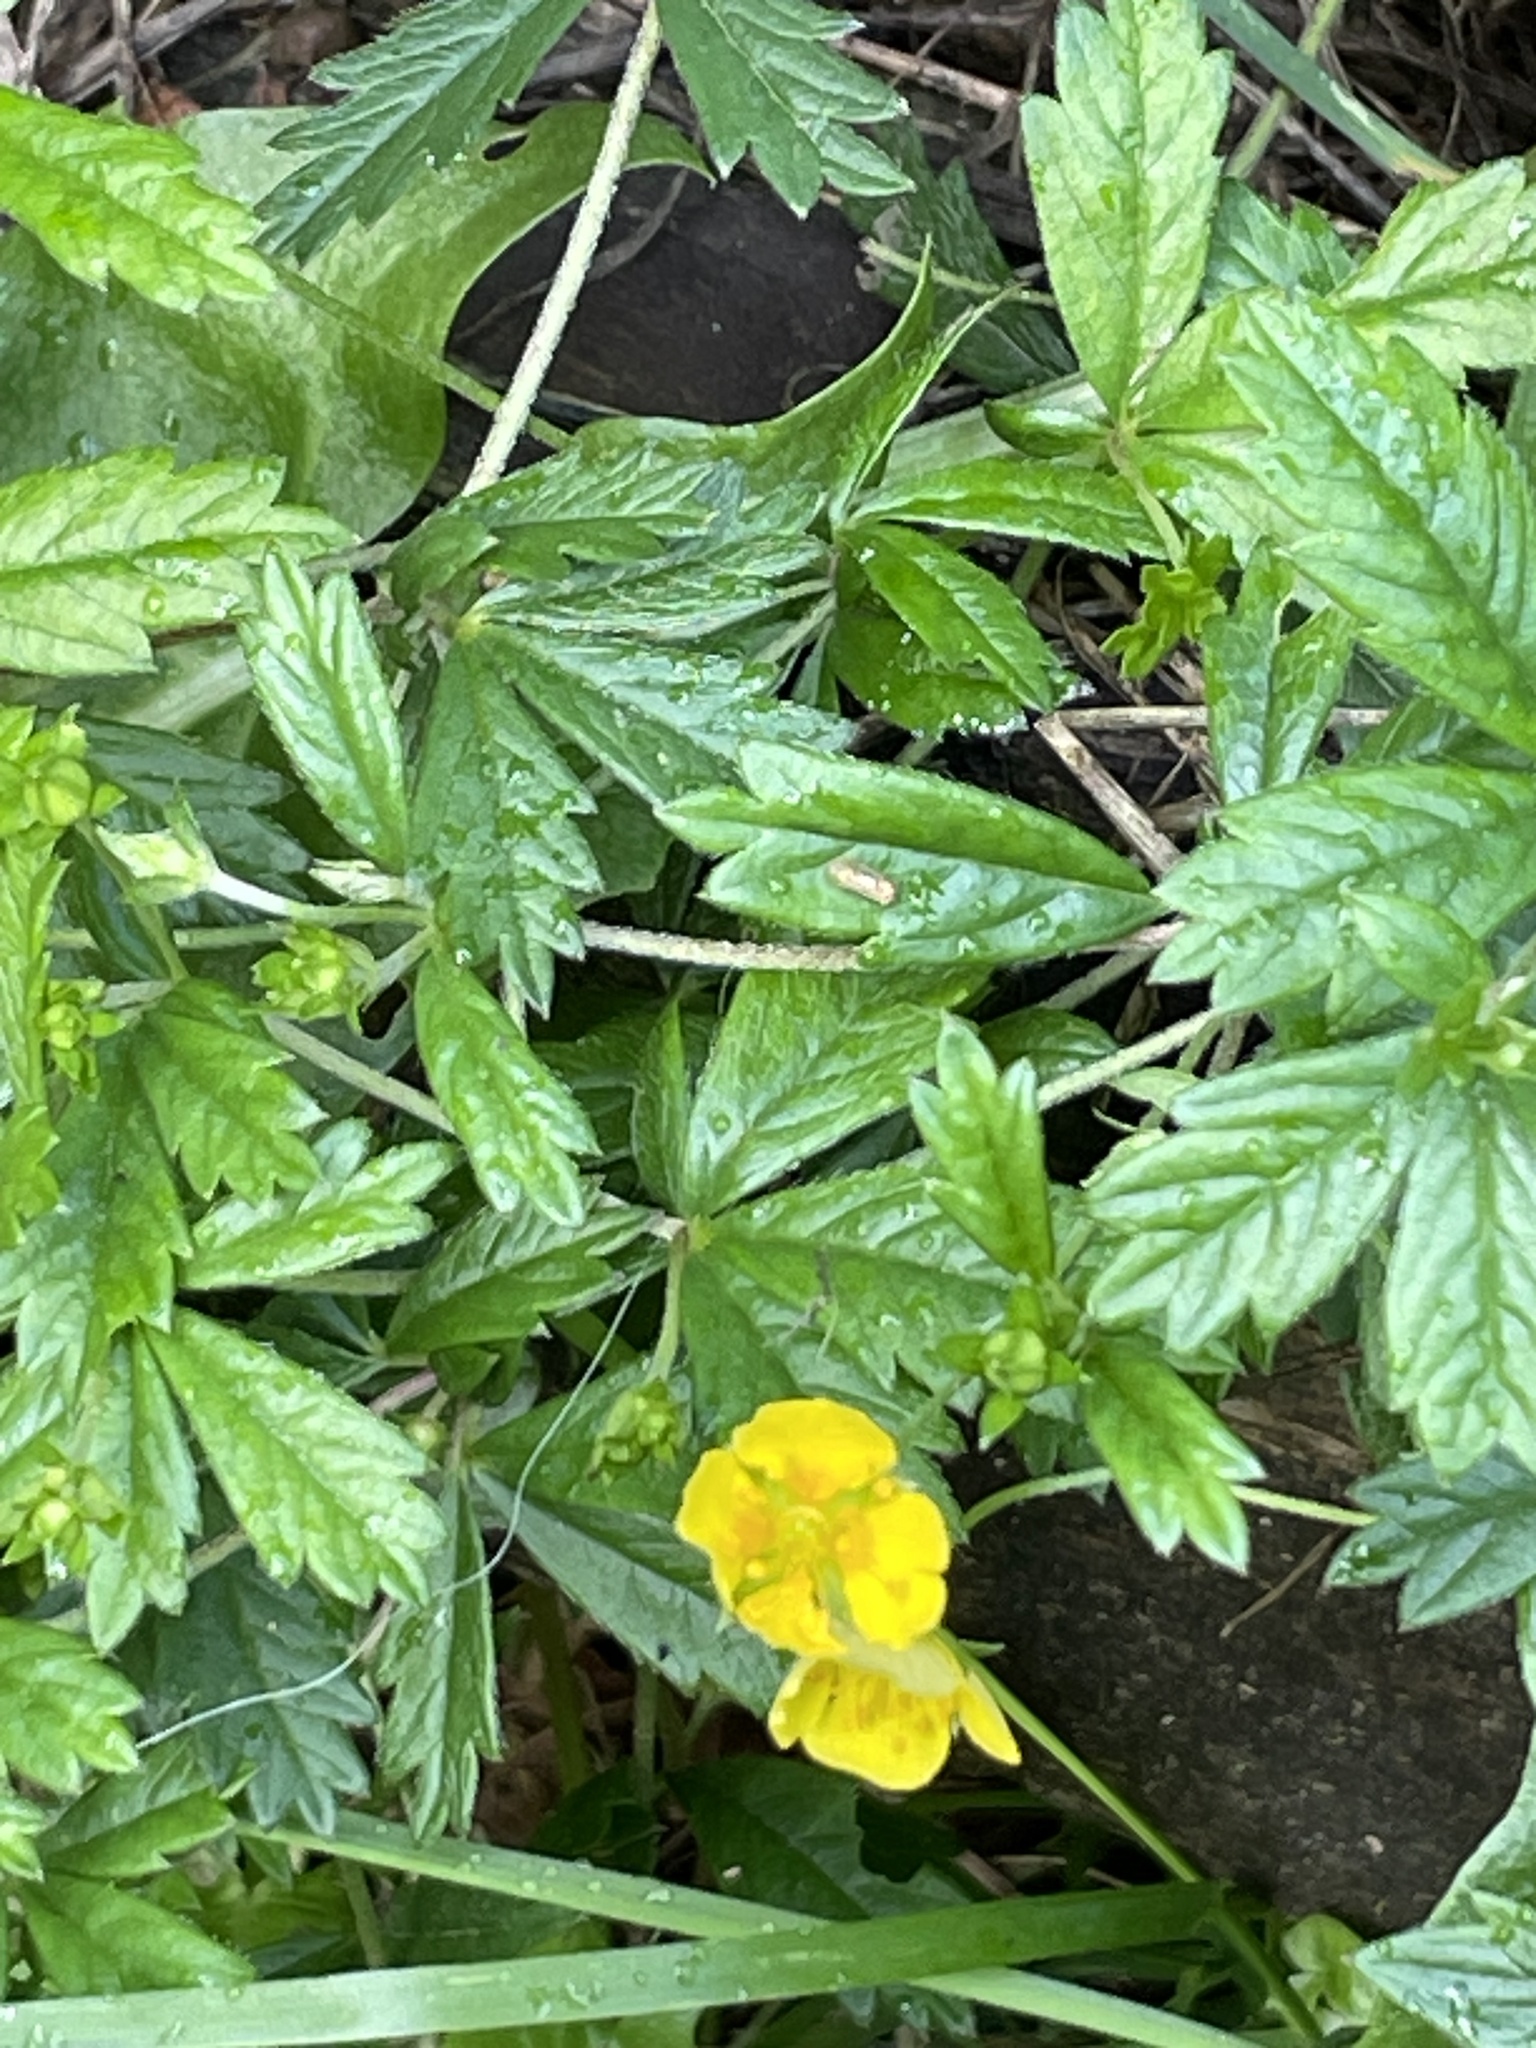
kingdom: Plantae
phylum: Tracheophyta
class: Magnoliopsida
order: Rosales
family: Rosaceae
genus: Potentilla
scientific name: Potentilla erecta
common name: Tormentil
